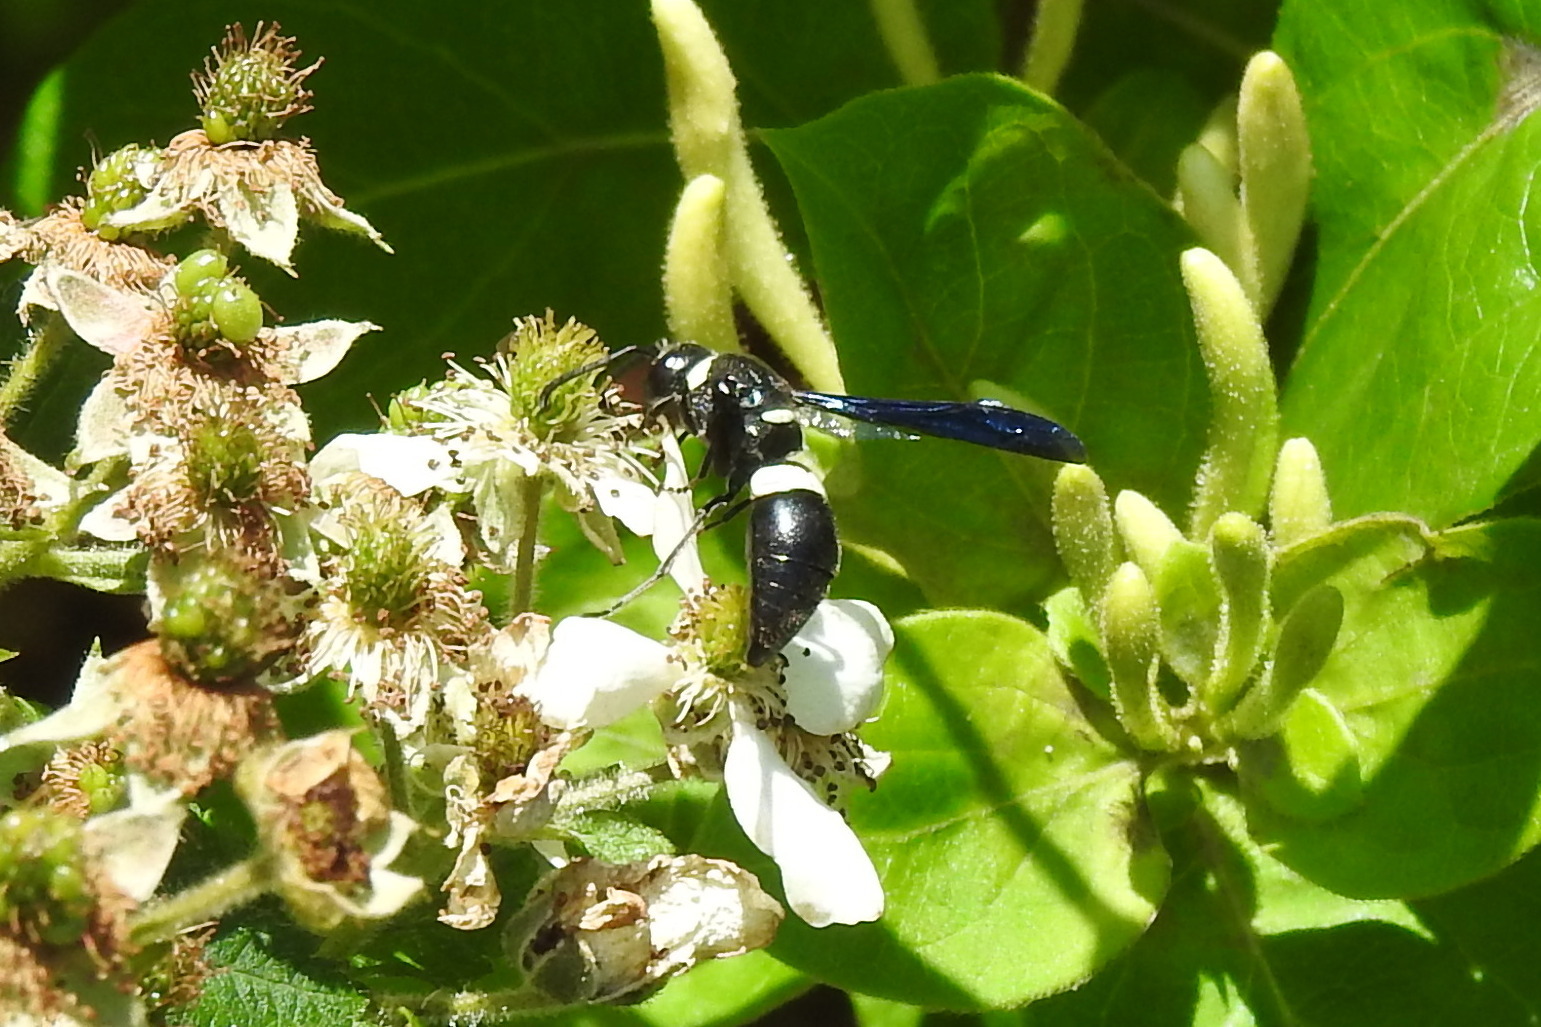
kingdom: Animalia
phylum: Arthropoda
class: Insecta
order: Hymenoptera
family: Eumenidae
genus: Monobia
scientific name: Monobia quadridens
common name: Four-toothed mason wasp
